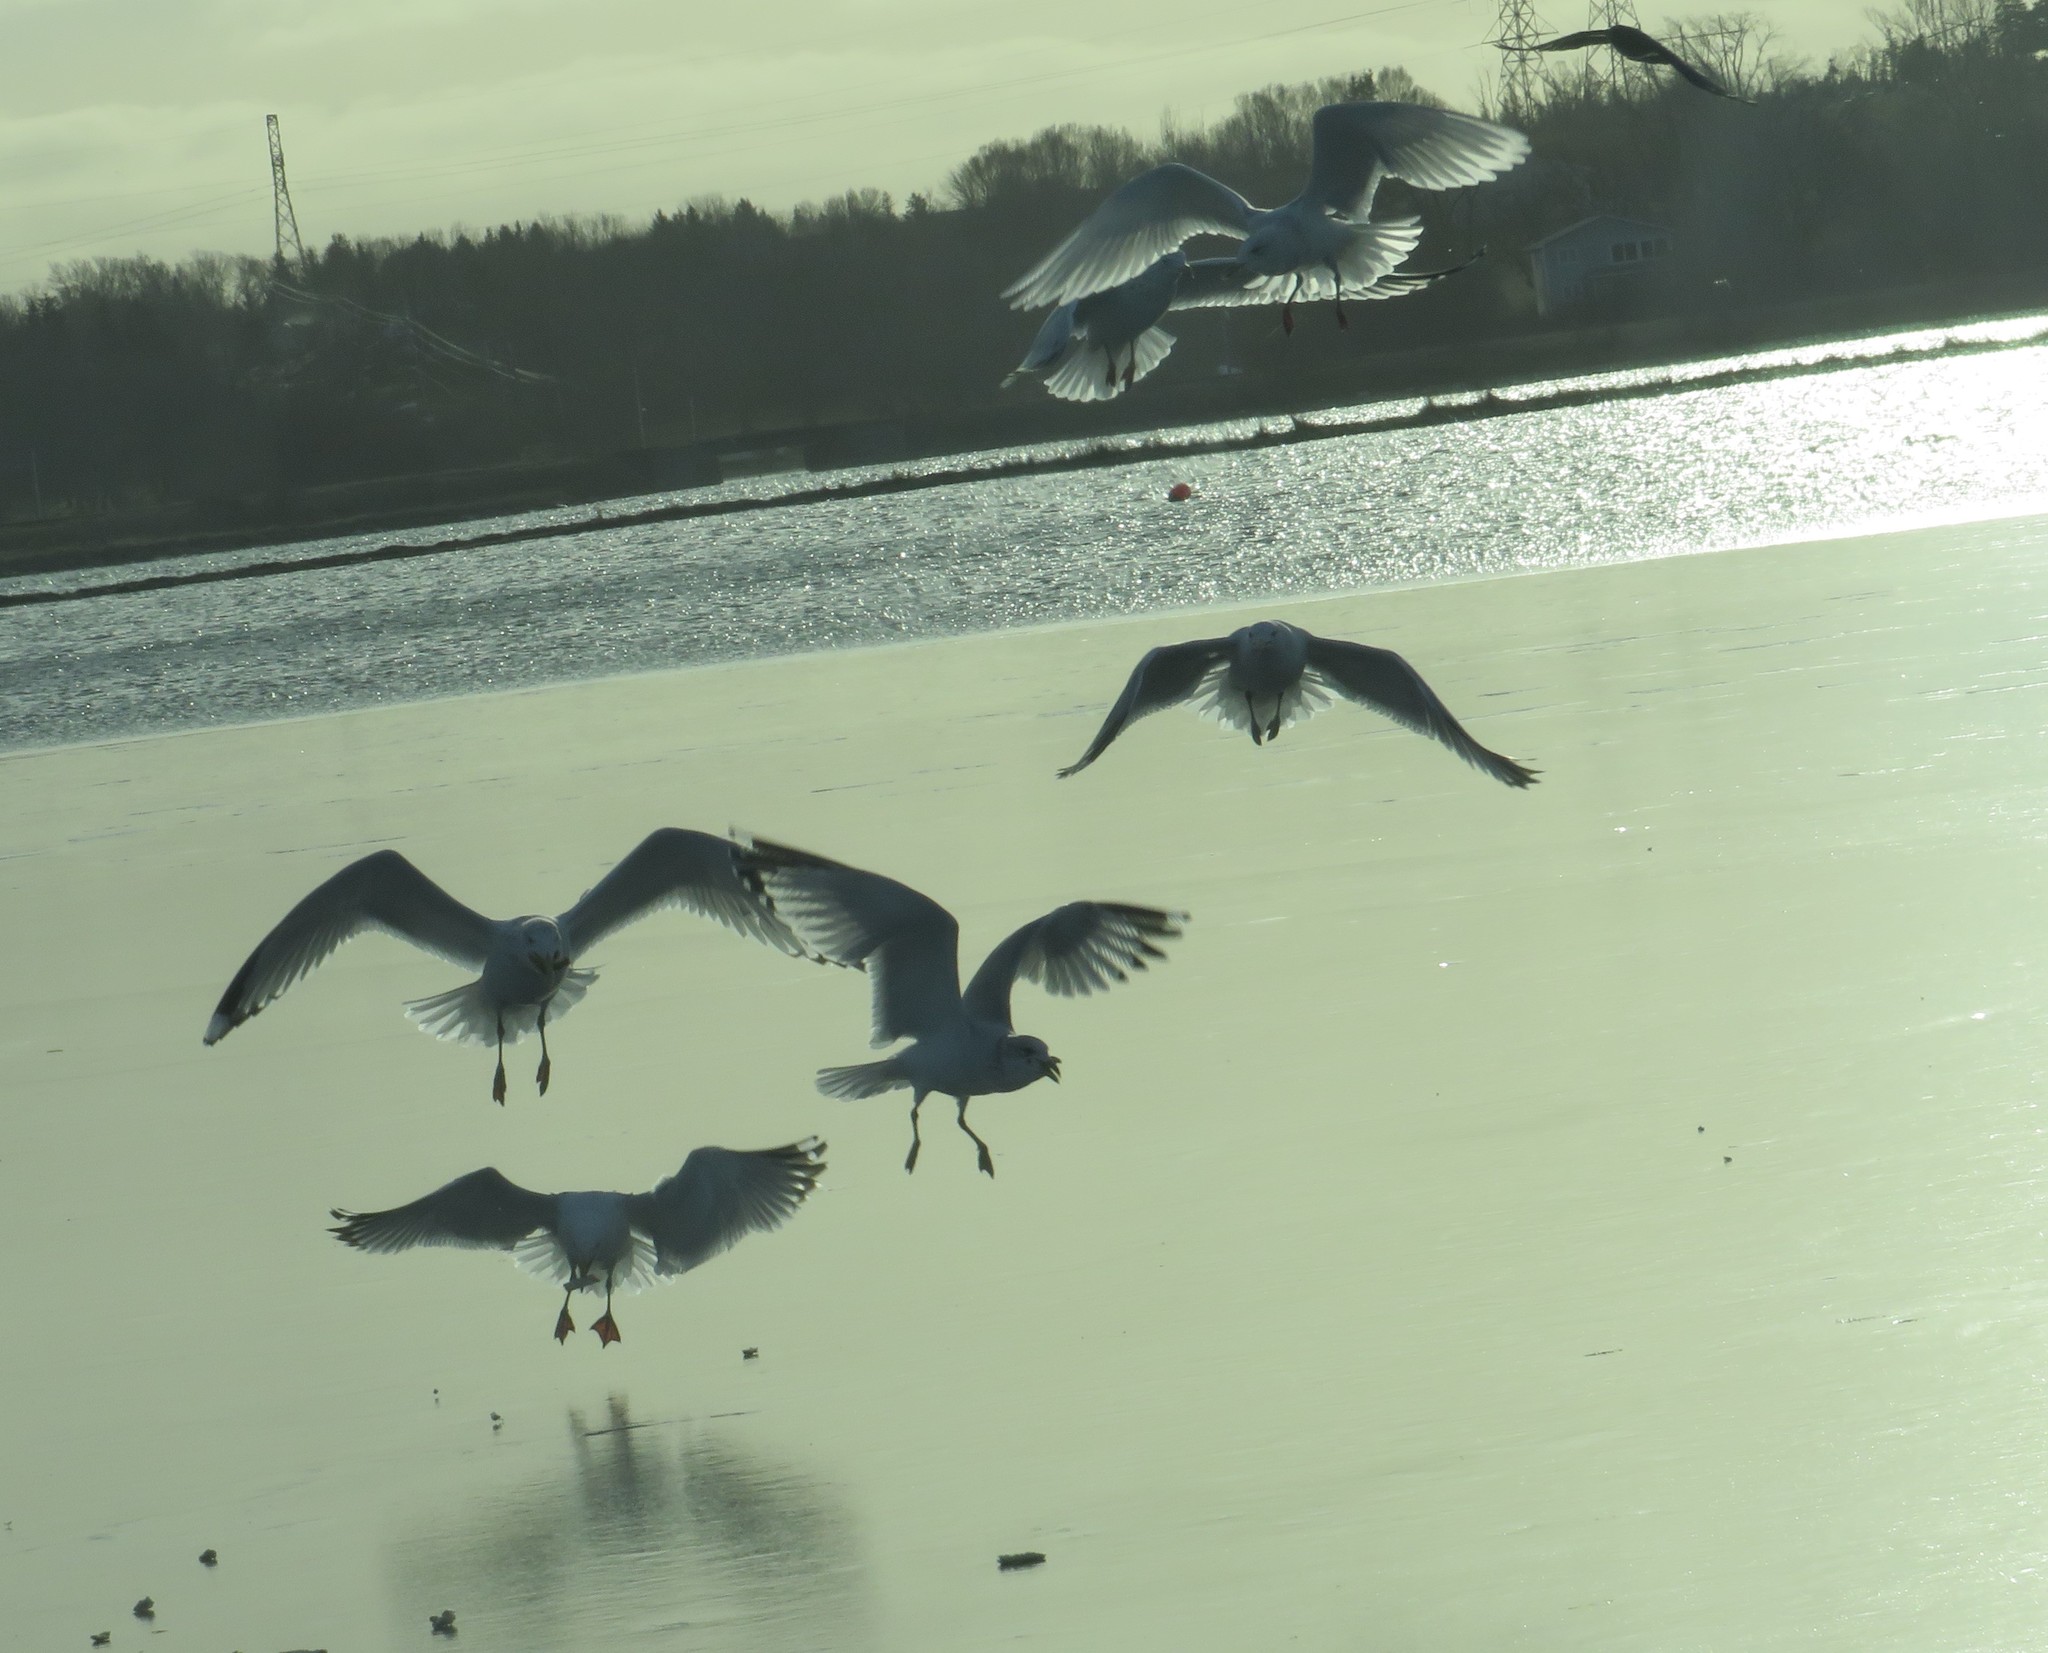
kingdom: Animalia
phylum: Chordata
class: Aves
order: Charadriiformes
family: Laridae
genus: Larus
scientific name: Larus glaucoides
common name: Iceland gull
